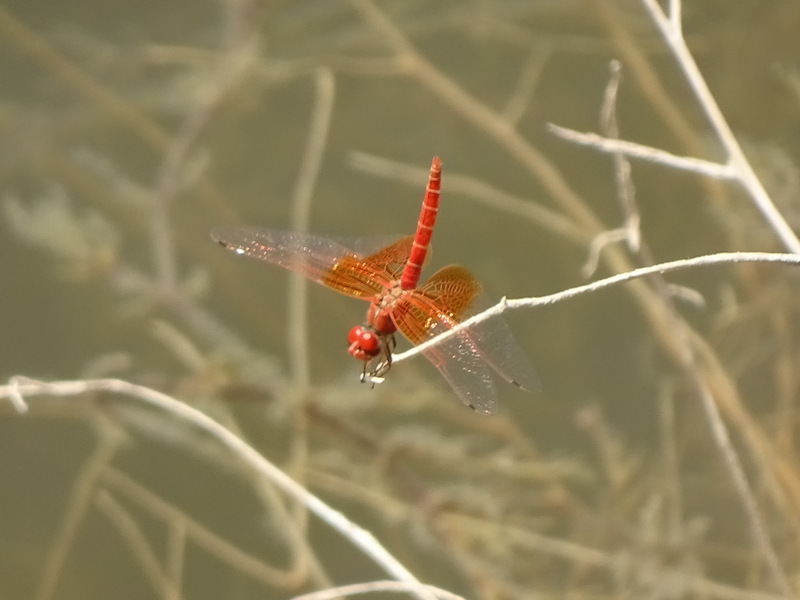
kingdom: Animalia
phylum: Arthropoda
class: Insecta
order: Odonata
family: Libellulidae
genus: Trithemis
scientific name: Trithemis kirbyi
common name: Kirby's dropwing
